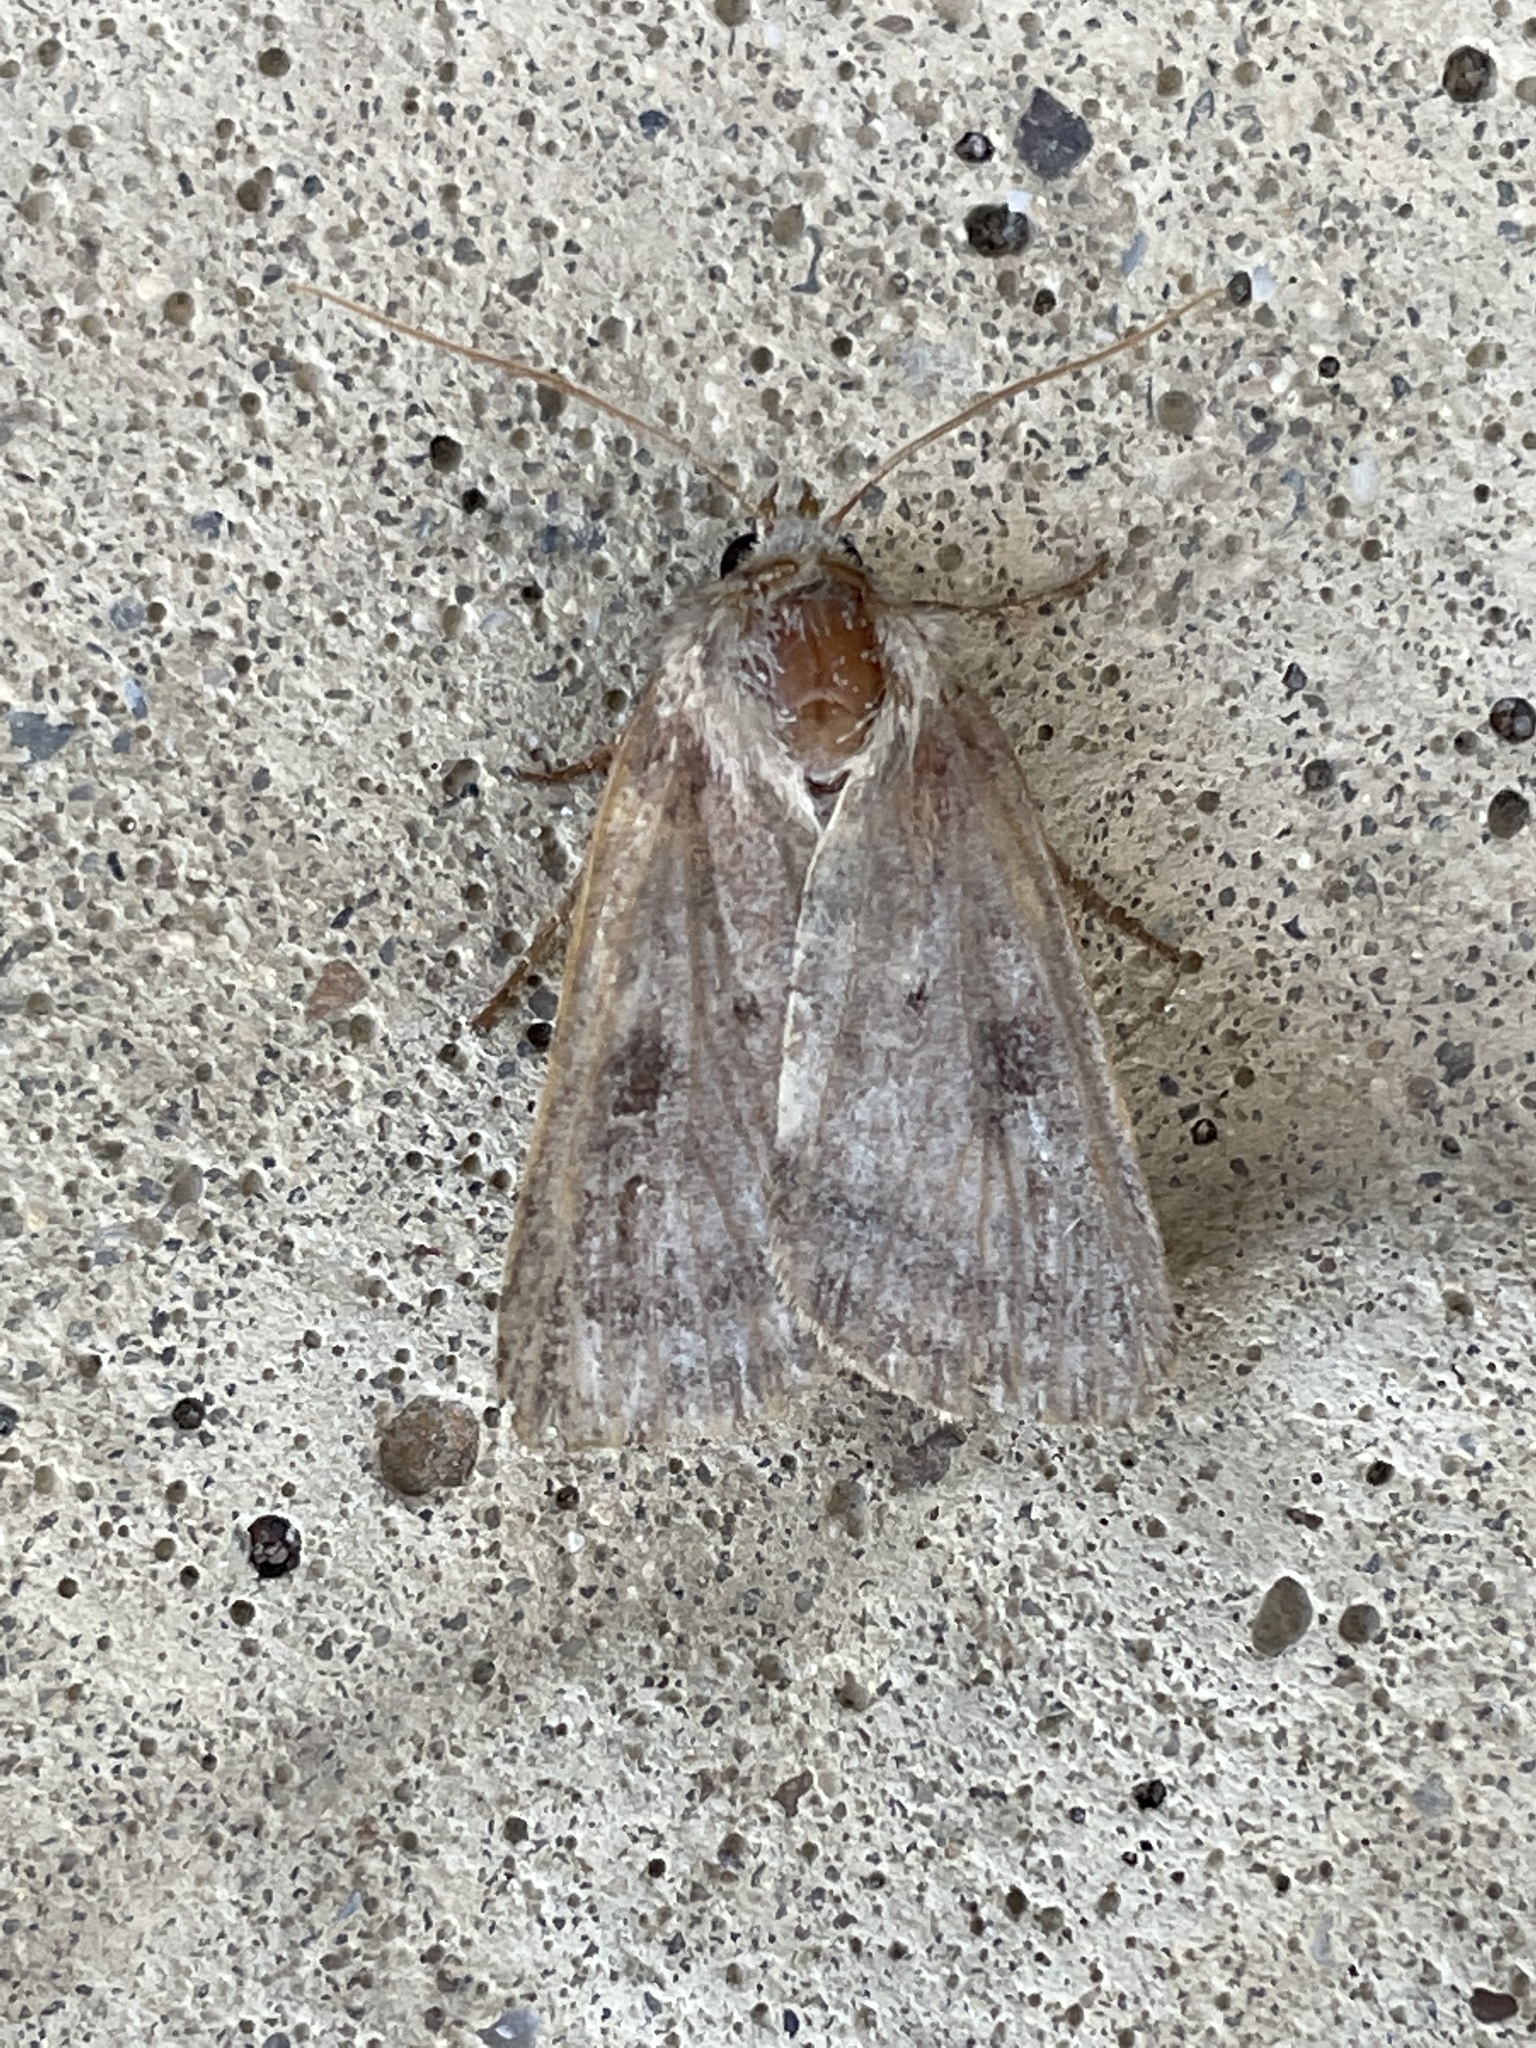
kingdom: Animalia
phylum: Arthropoda
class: Insecta
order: Lepidoptera
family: Noctuidae
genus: Diarsia
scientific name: Diarsia rubi
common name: Small square-spot
